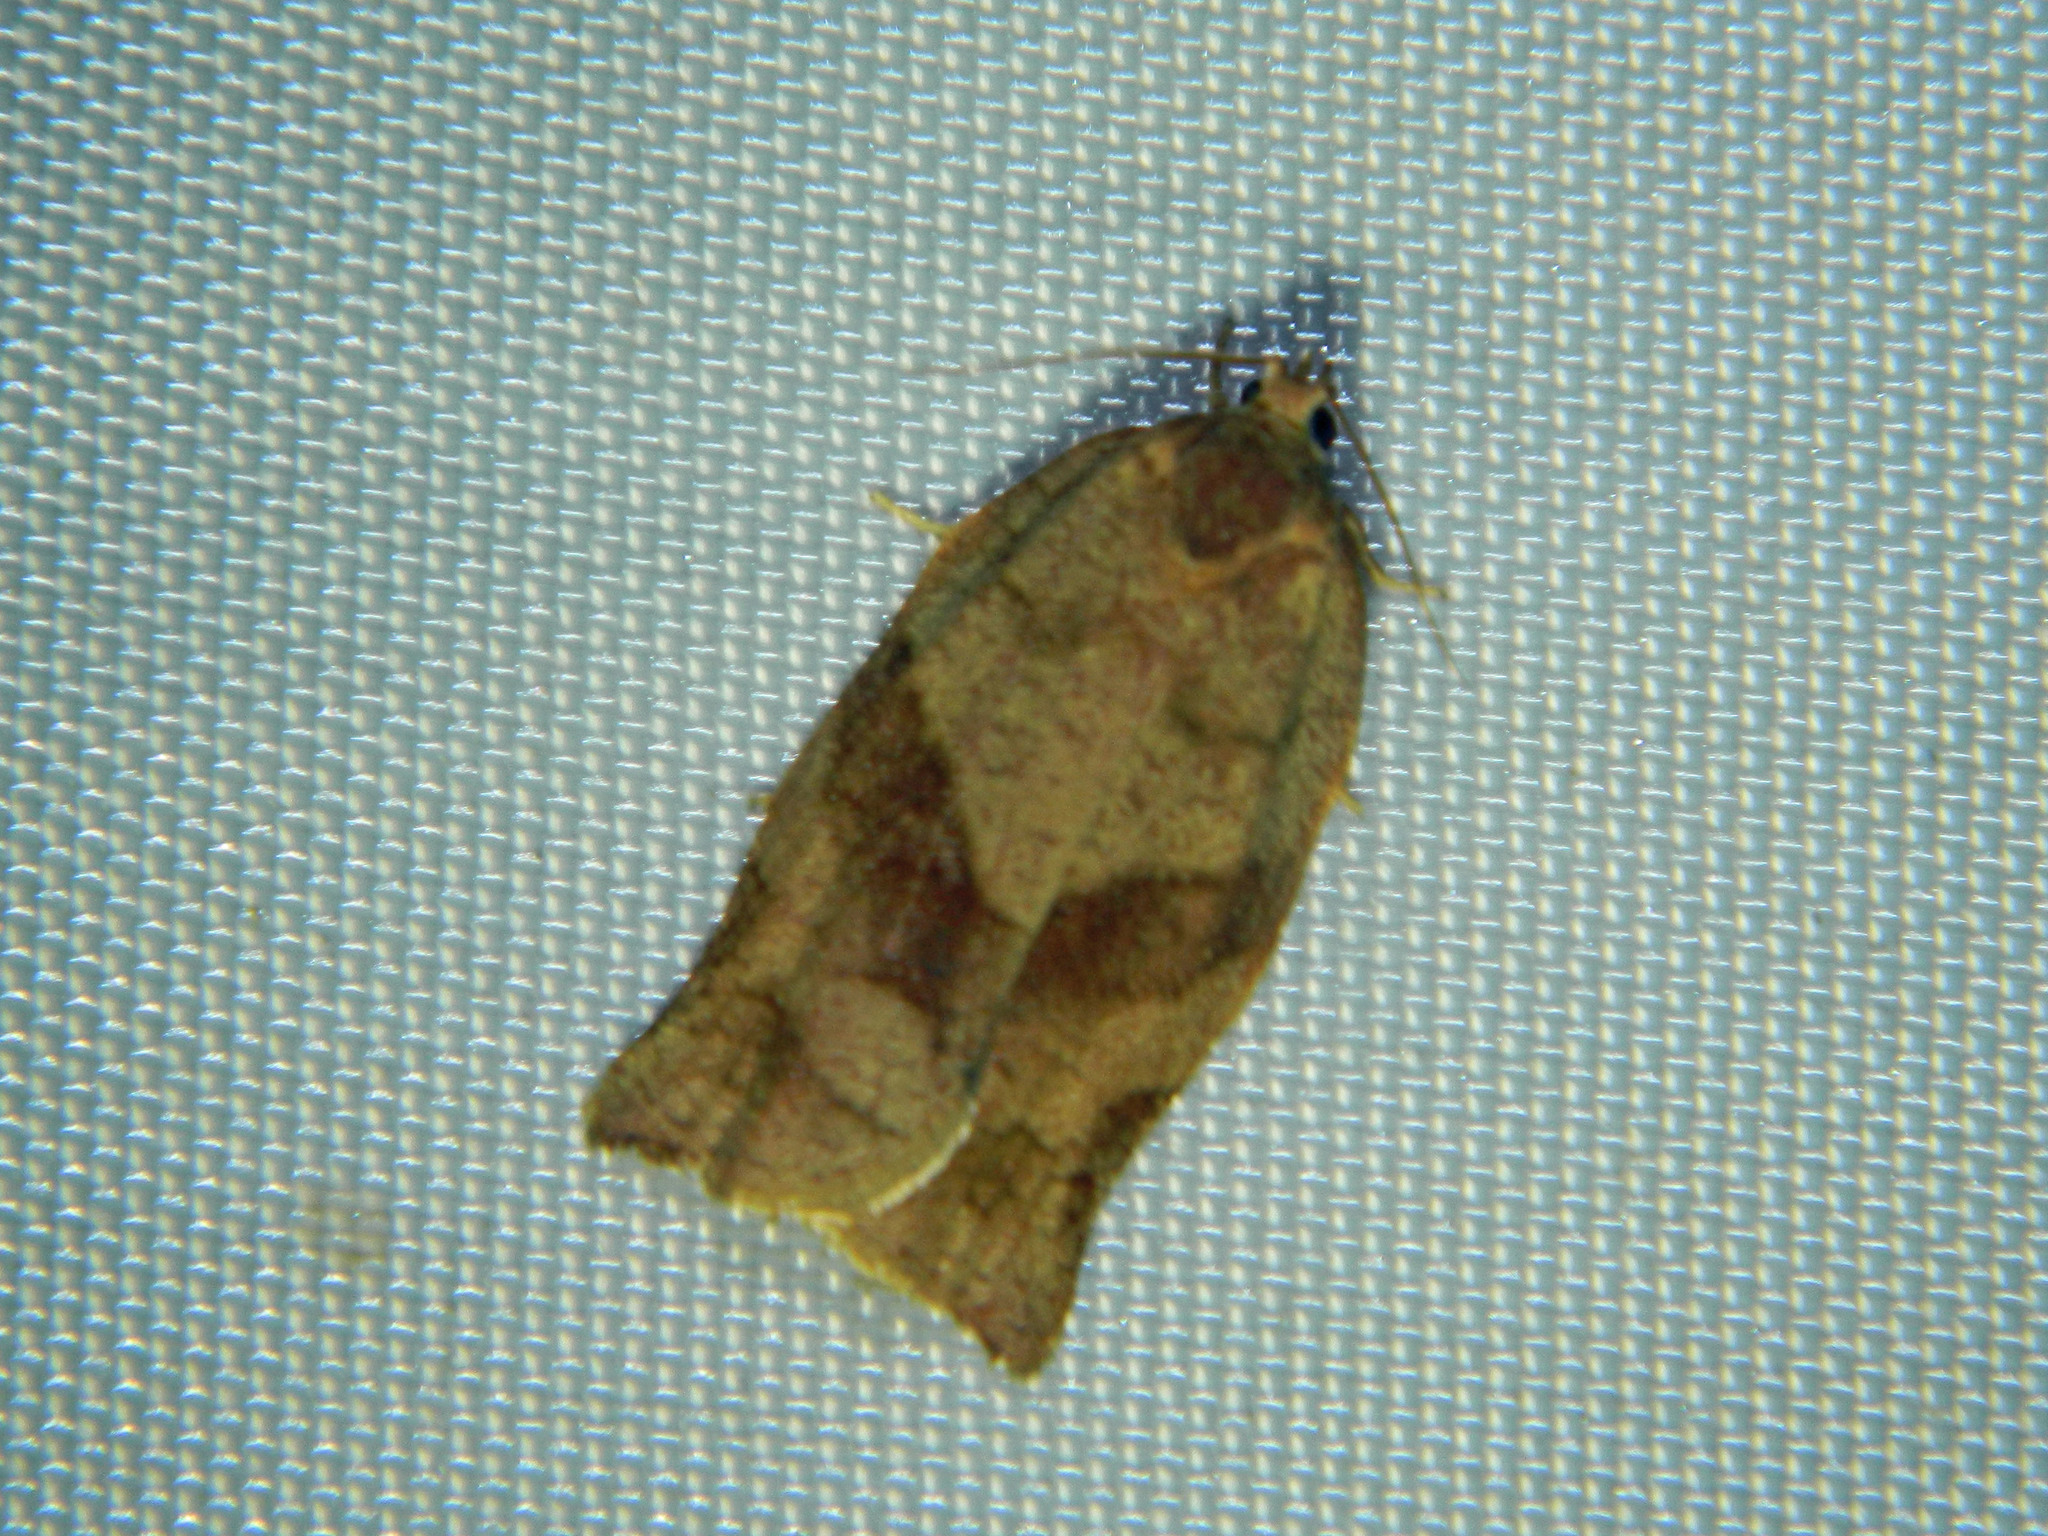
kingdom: Animalia
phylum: Arthropoda
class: Insecta
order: Lepidoptera
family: Tortricidae
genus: Choristoneura
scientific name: Choristoneura rosaceana
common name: Oblique-banded leafroller moth
